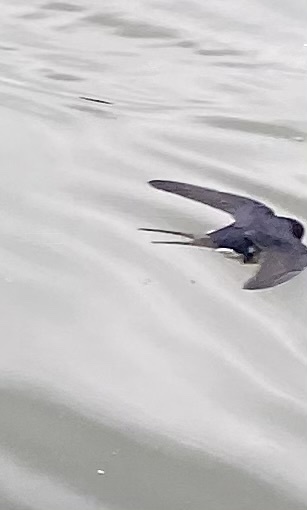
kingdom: Animalia
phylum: Chordata
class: Aves
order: Passeriformes
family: Hirundinidae
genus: Hirundo
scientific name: Hirundo rustica
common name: Barn swallow
